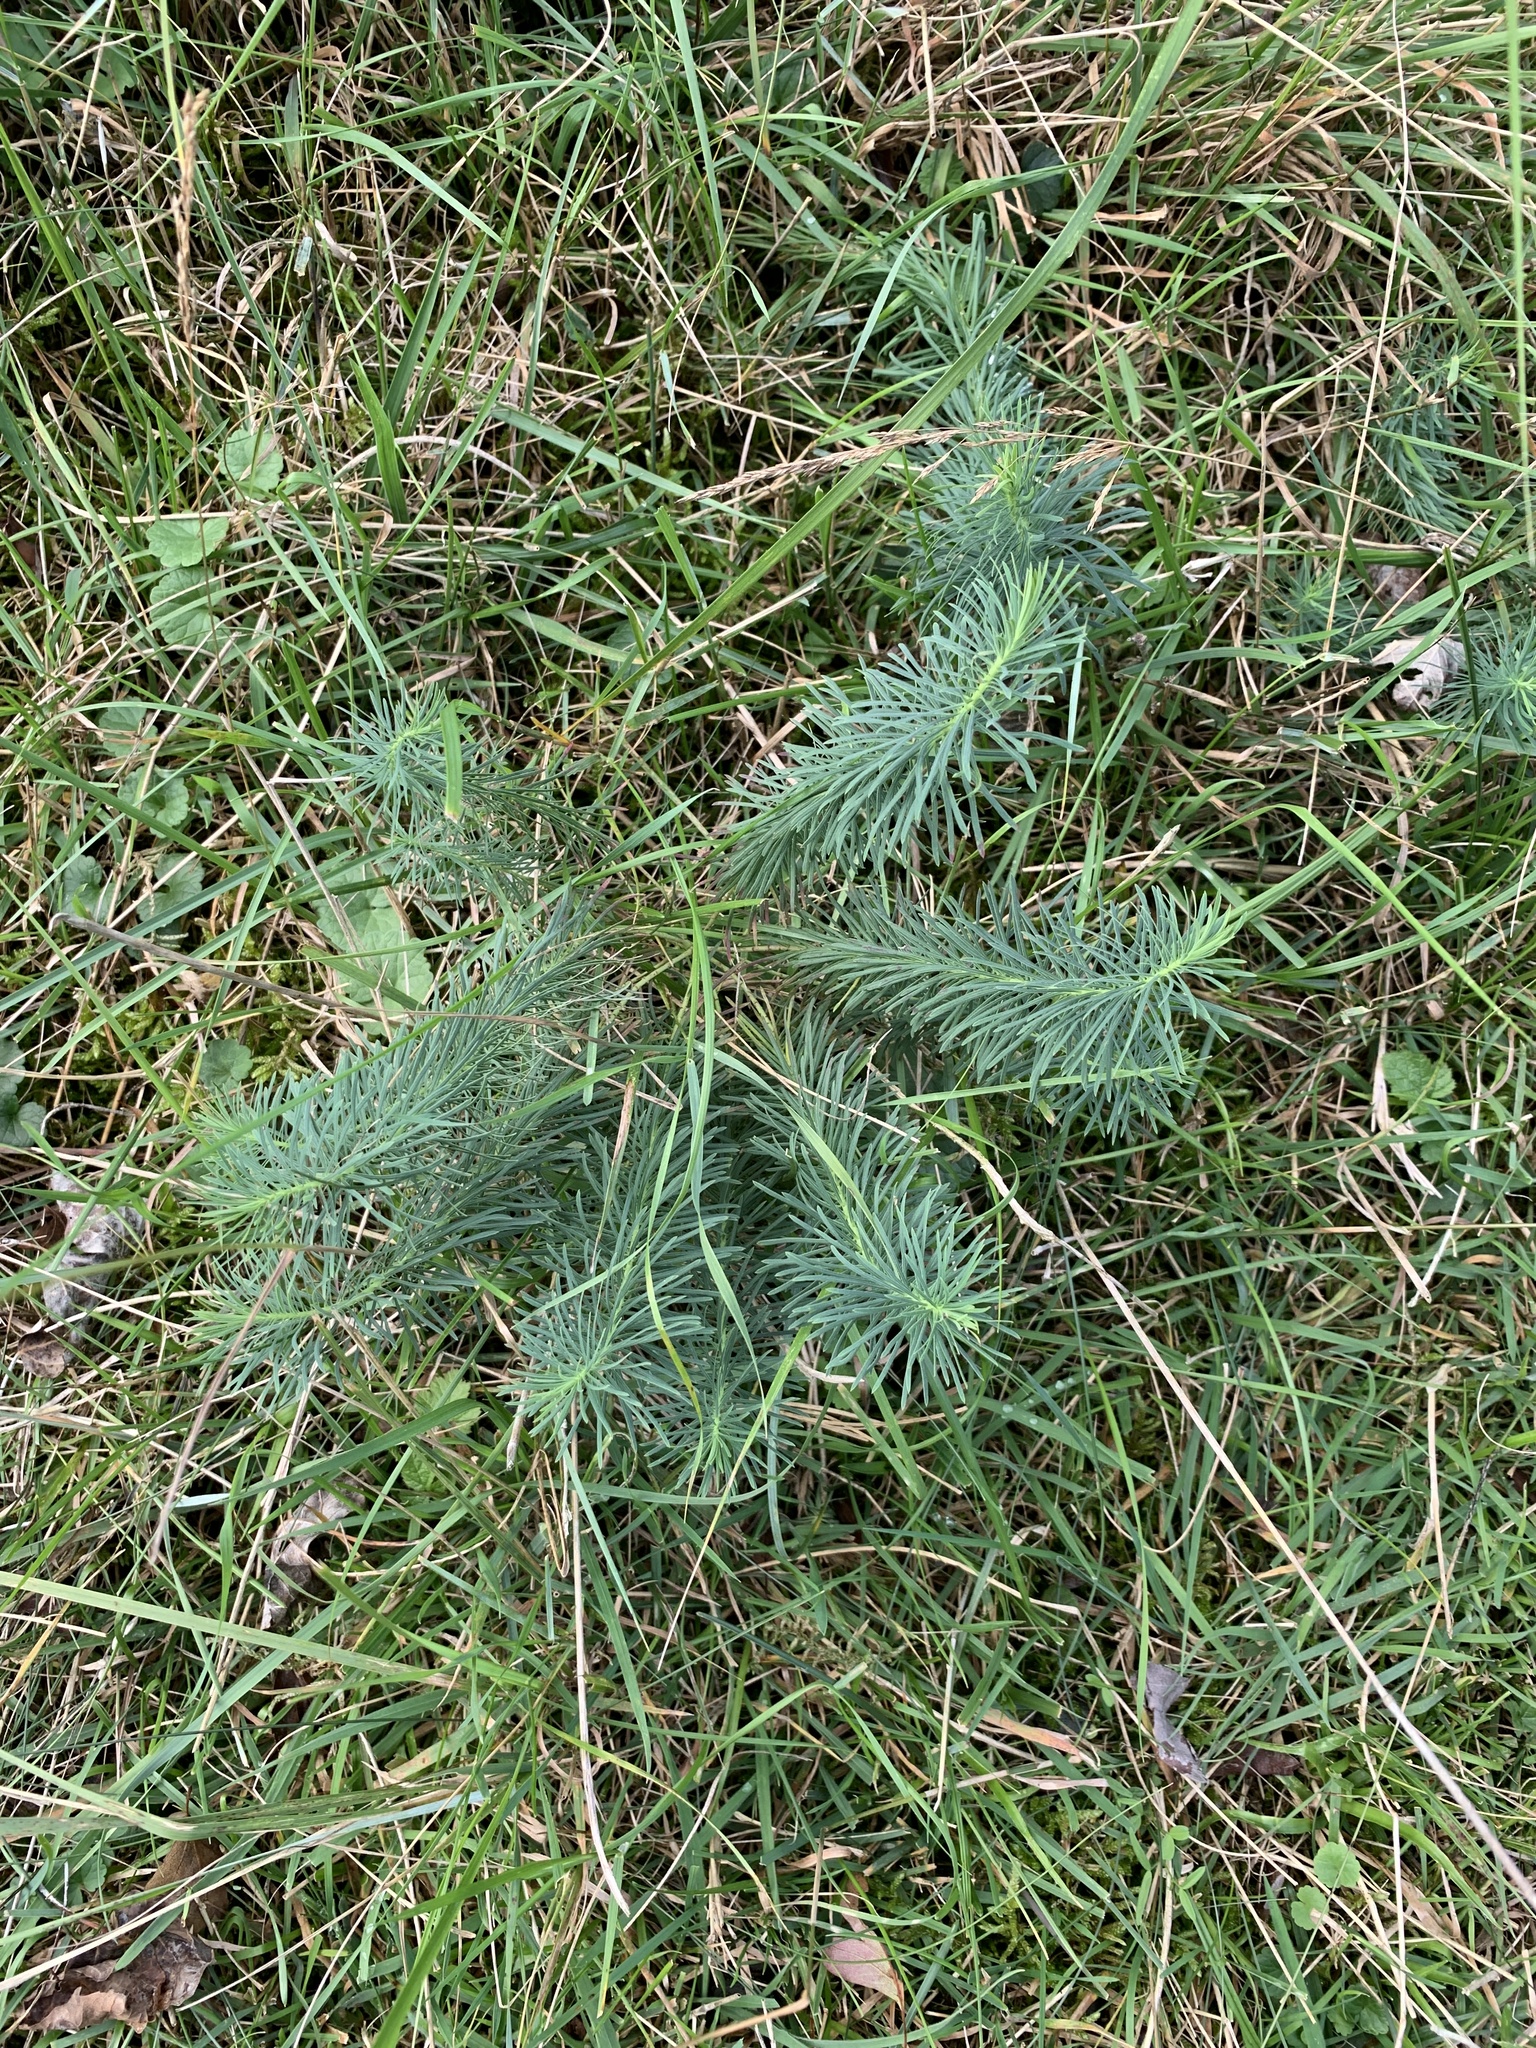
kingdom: Plantae
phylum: Tracheophyta
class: Magnoliopsida
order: Malpighiales
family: Euphorbiaceae
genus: Euphorbia
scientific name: Euphorbia cyparissias
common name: Cypress spurge
